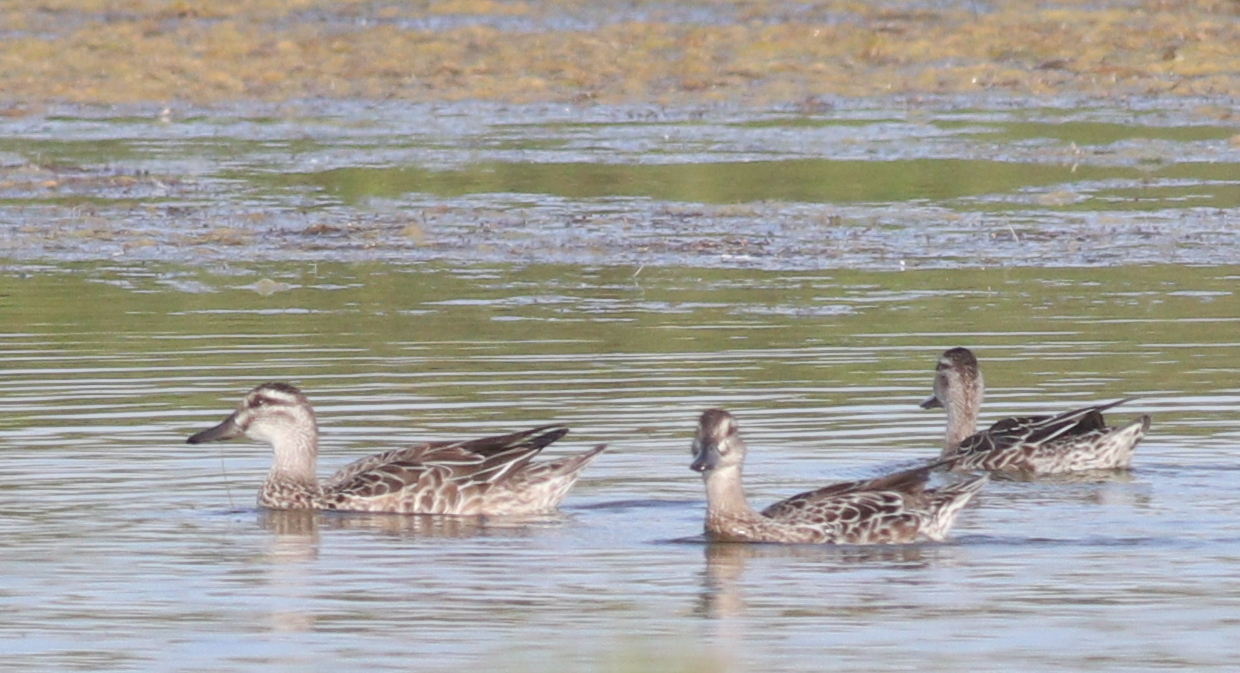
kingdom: Animalia
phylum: Chordata
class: Aves
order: Anseriformes
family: Anatidae
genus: Spatula
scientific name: Spatula querquedula
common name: Garganey
